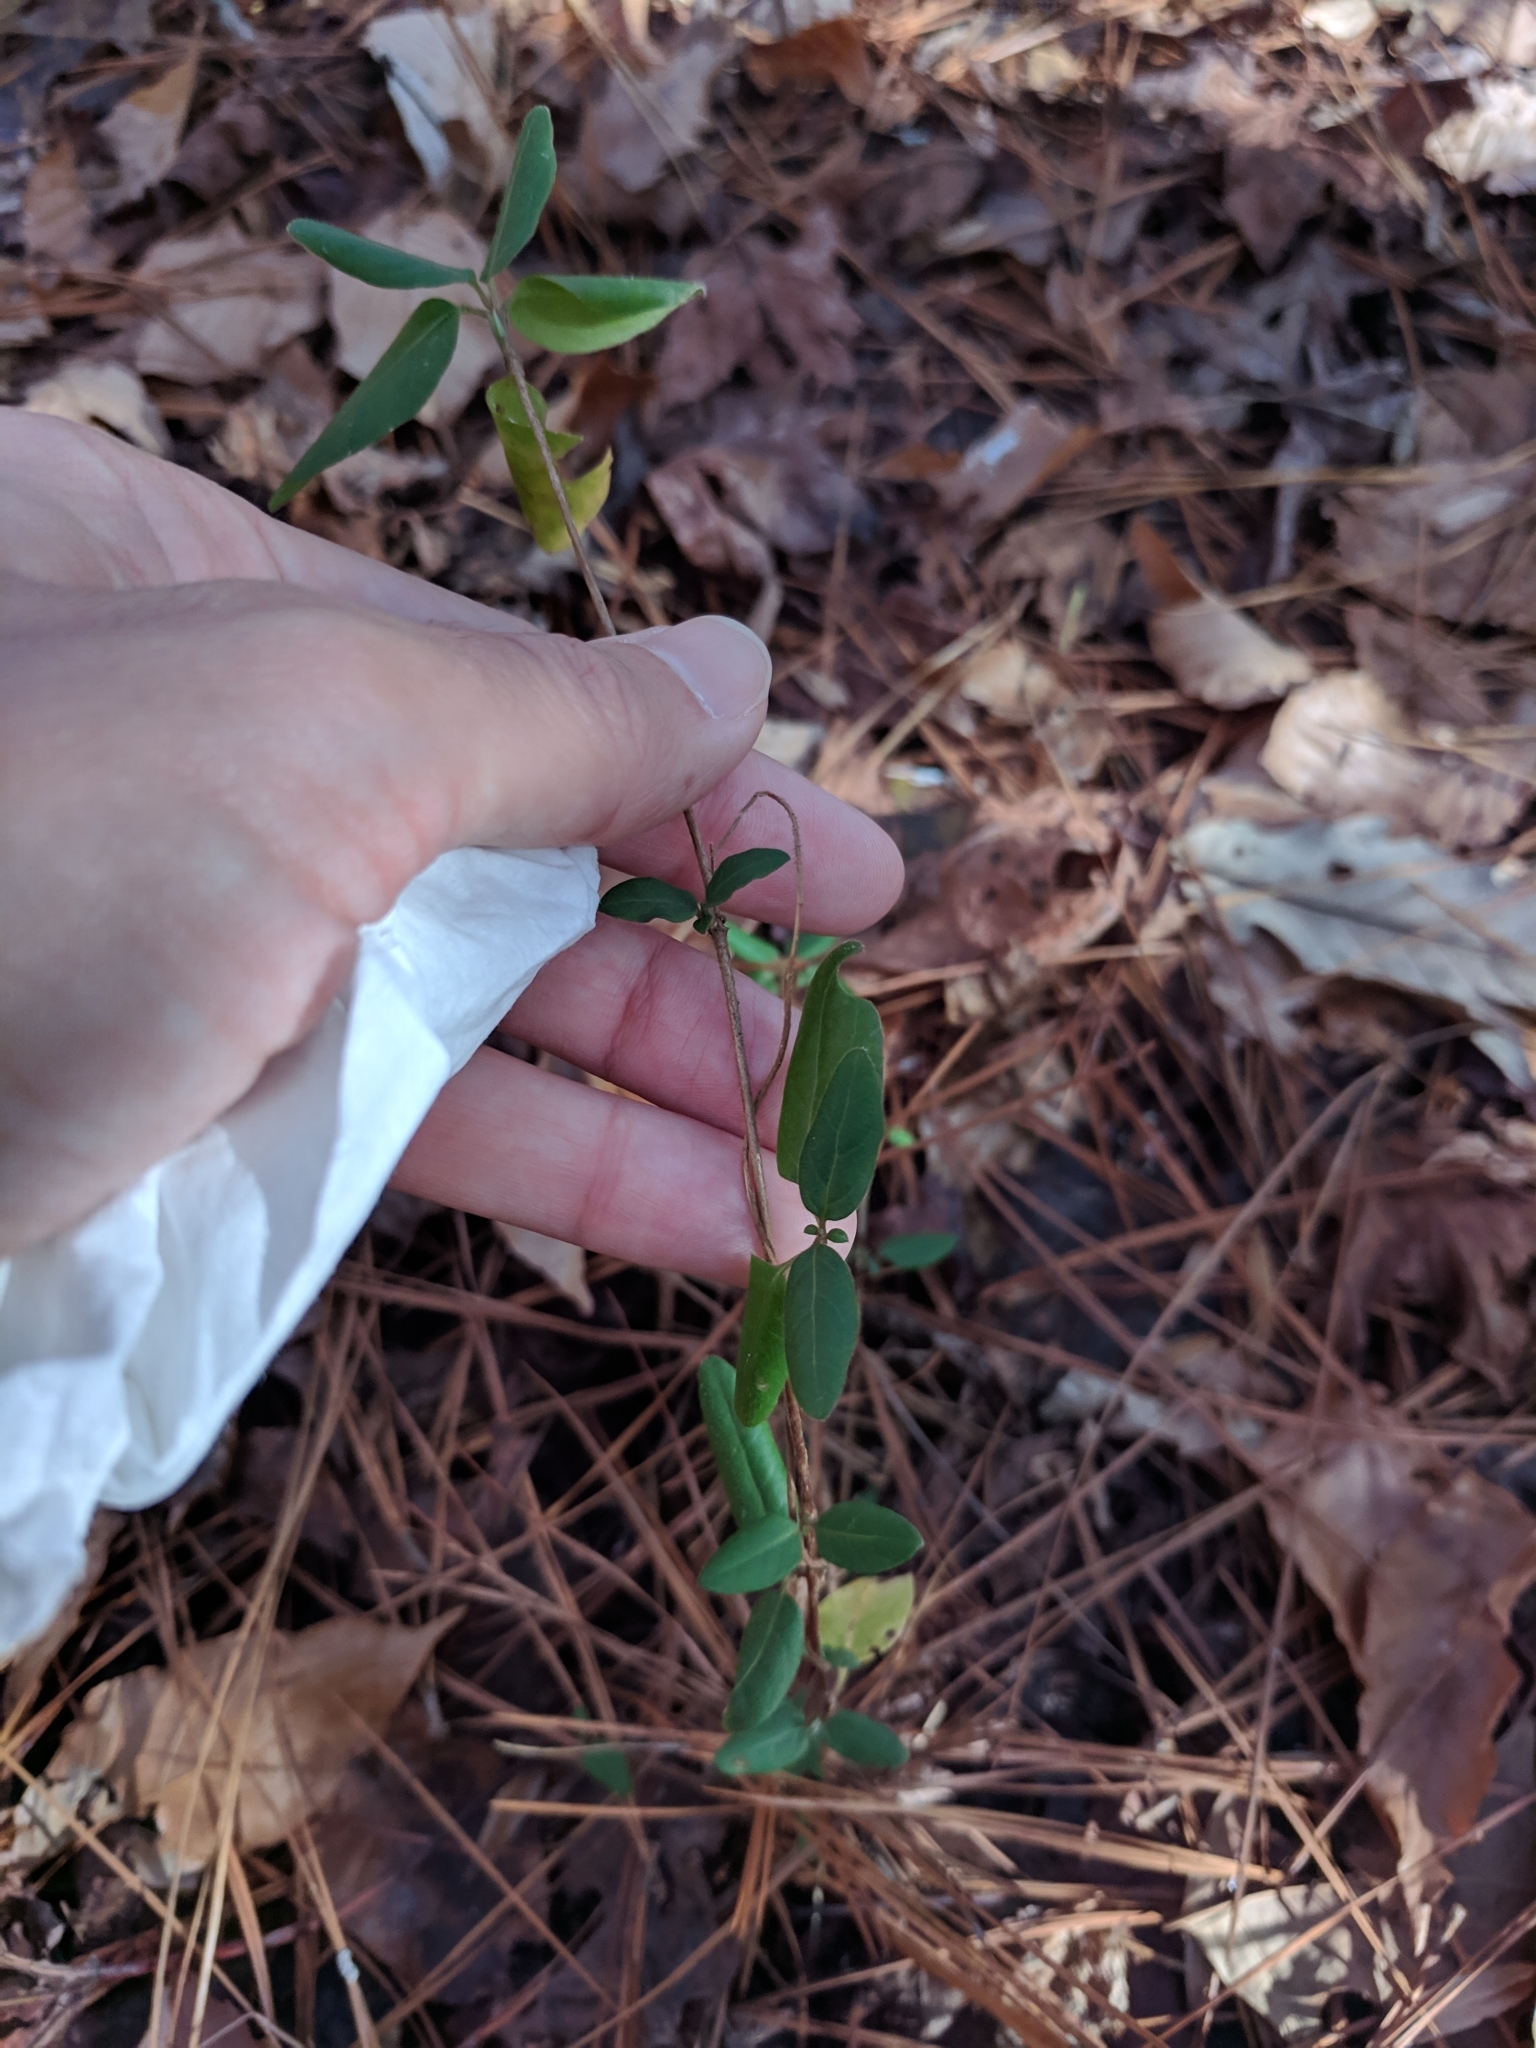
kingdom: Plantae
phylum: Tracheophyta
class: Magnoliopsida
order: Dipsacales
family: Caprifoliaceae
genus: Lonicera
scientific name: Lonicera japonica
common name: Japanese honeysuckle
